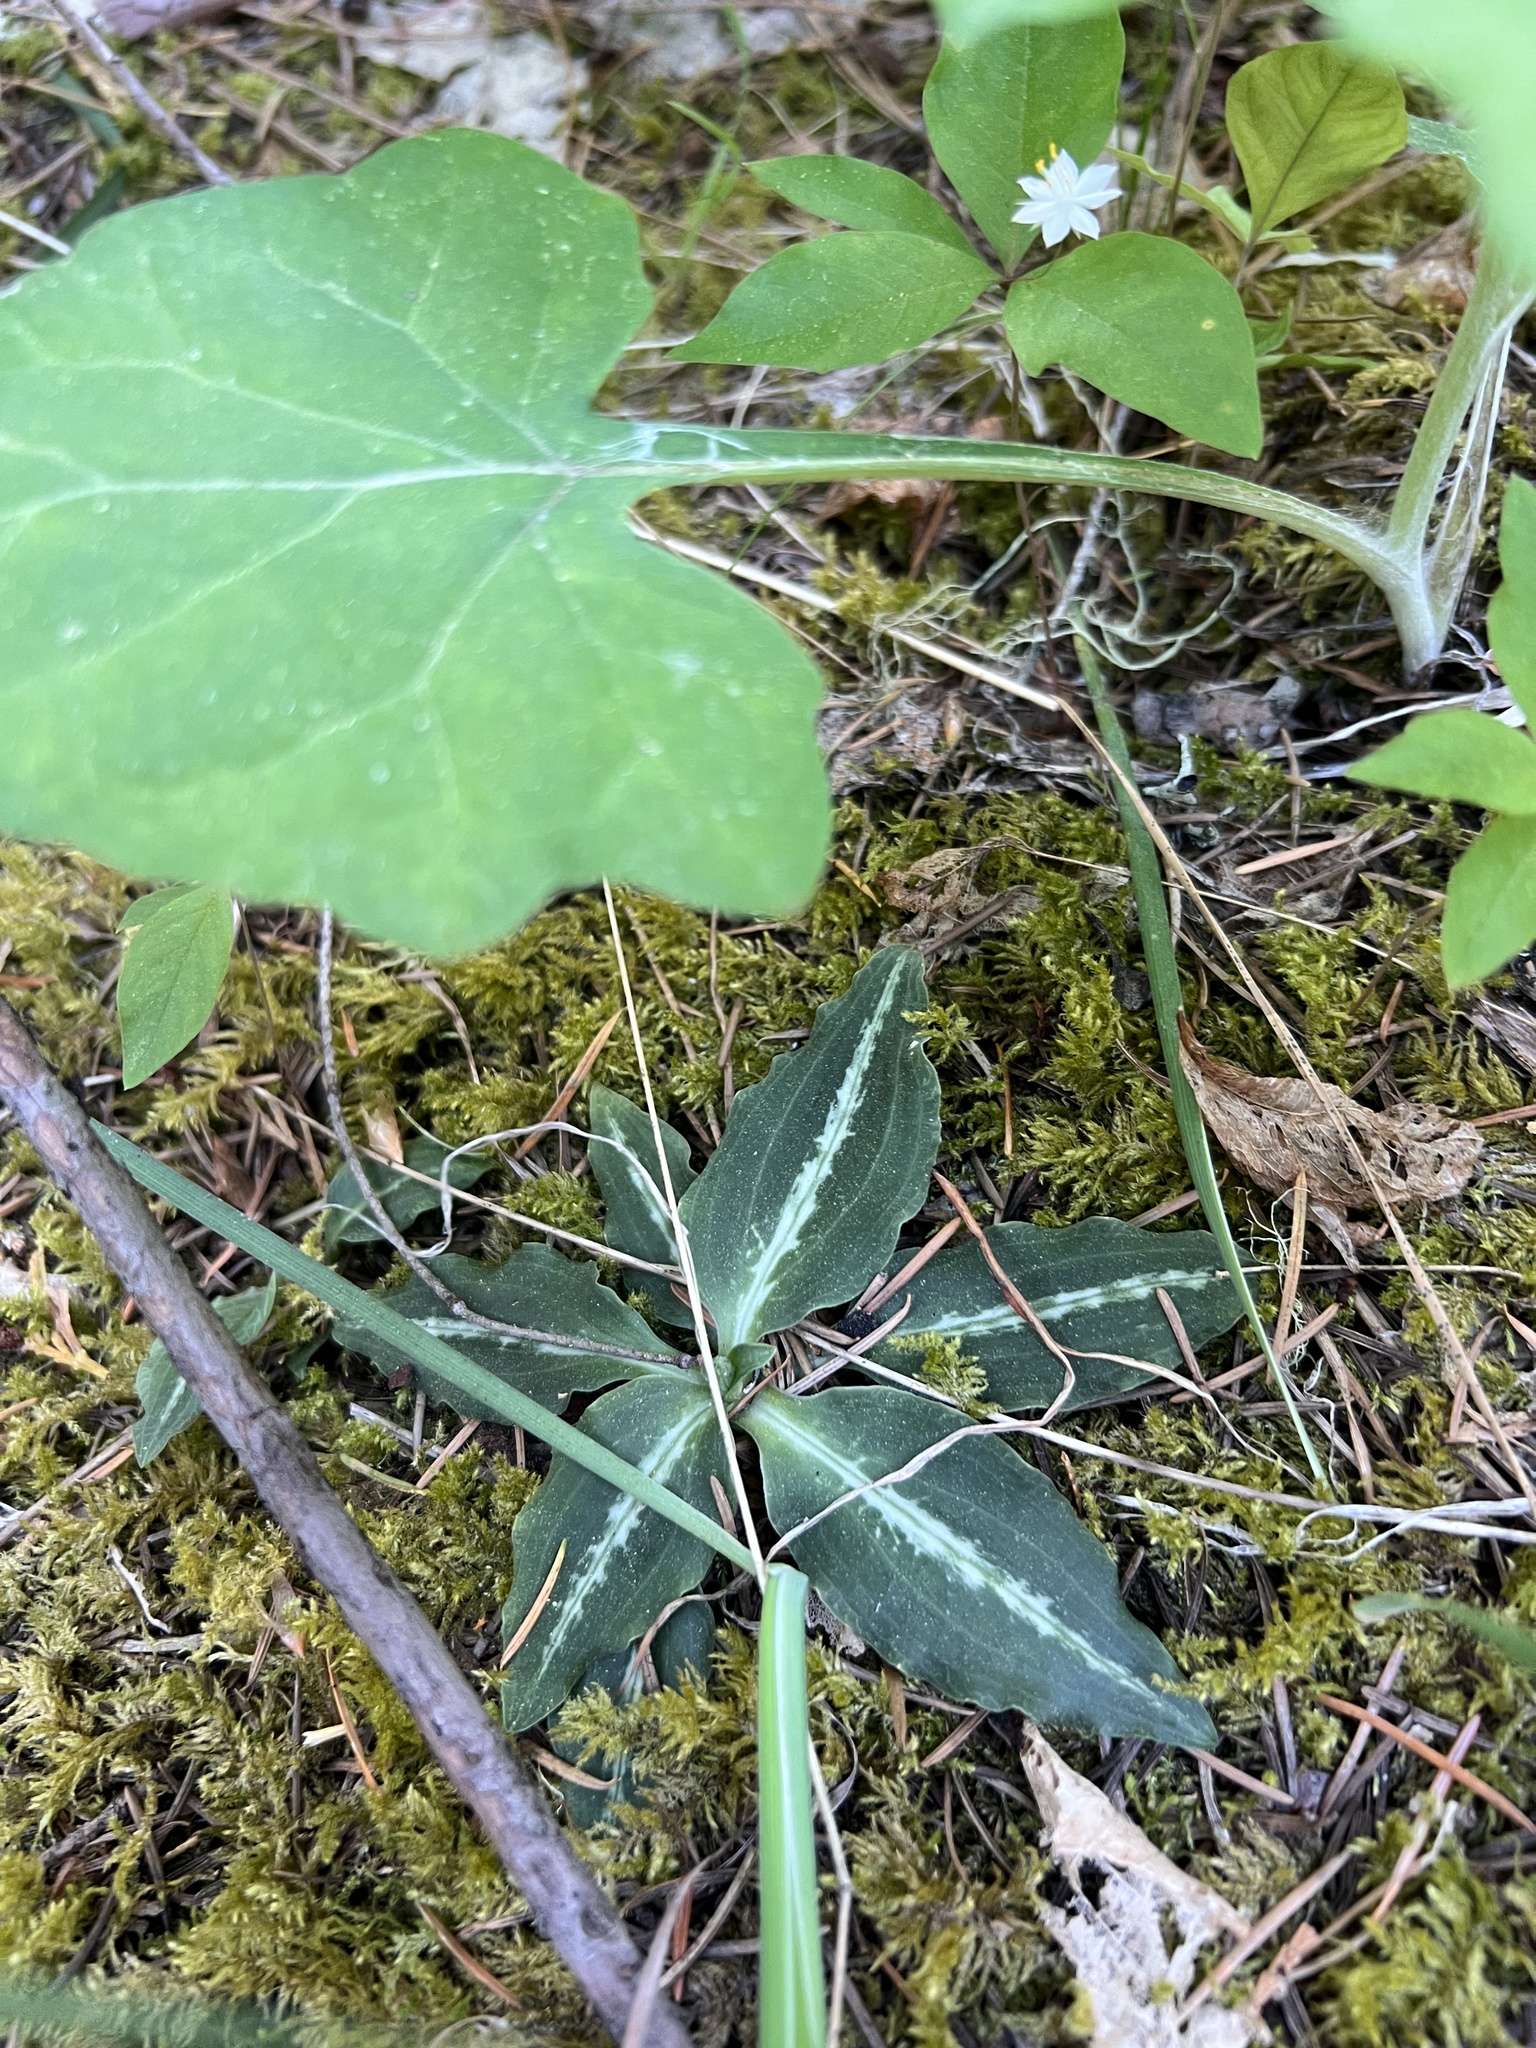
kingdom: Plantae
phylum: Tracheophyta
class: Liliopsida
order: Asparagales
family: Orchidaceae
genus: Goodyera
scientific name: Goodyera oblongifolia
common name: Giant rattlesnake-plantain
